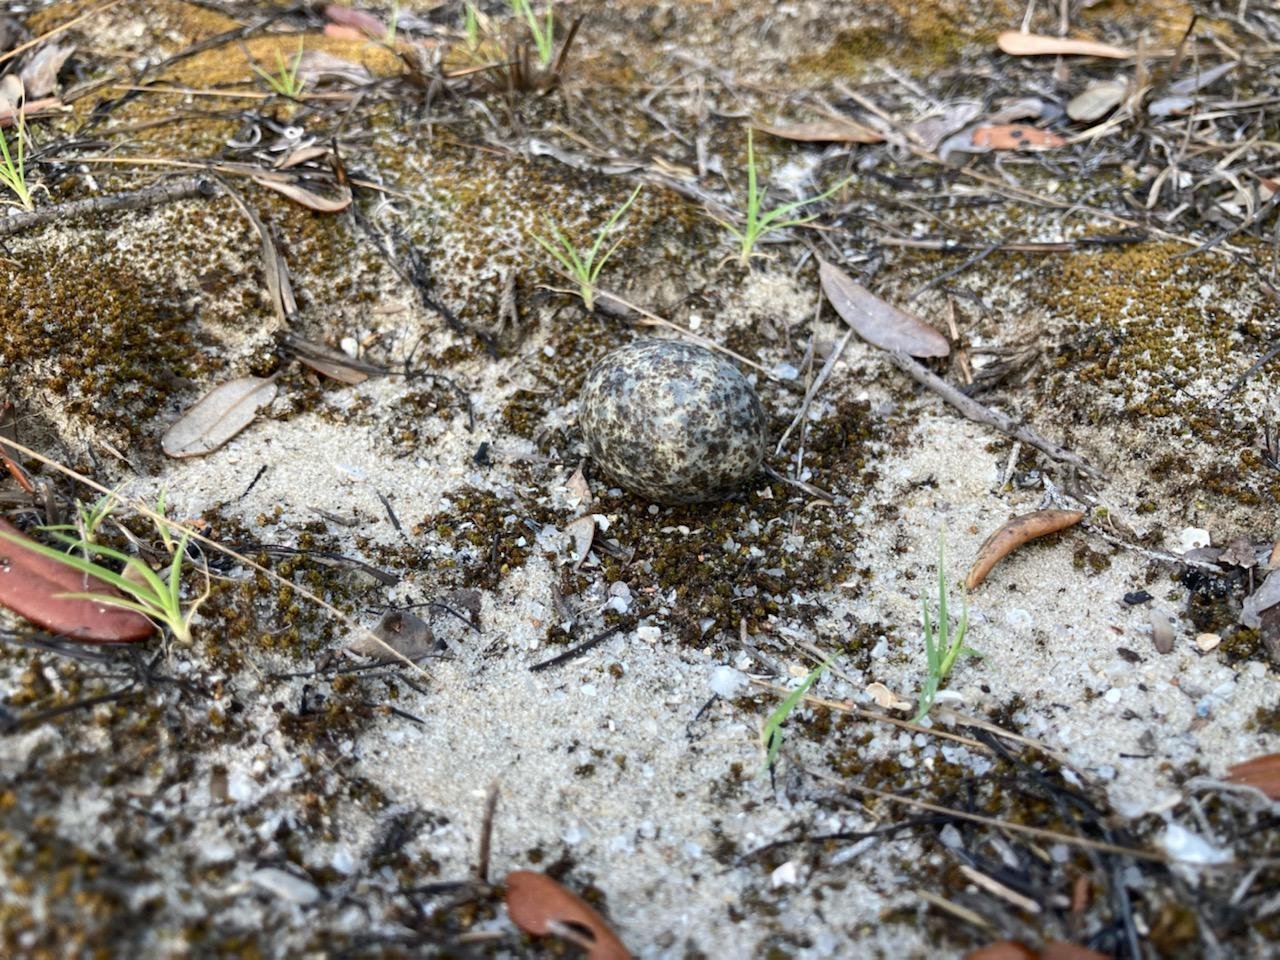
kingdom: Animalia
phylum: Chordata
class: Aves
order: Caprimulgiformes
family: Caprimulgidae
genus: Chordeiles
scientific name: Chordeiles minor
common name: Common nighthawk
